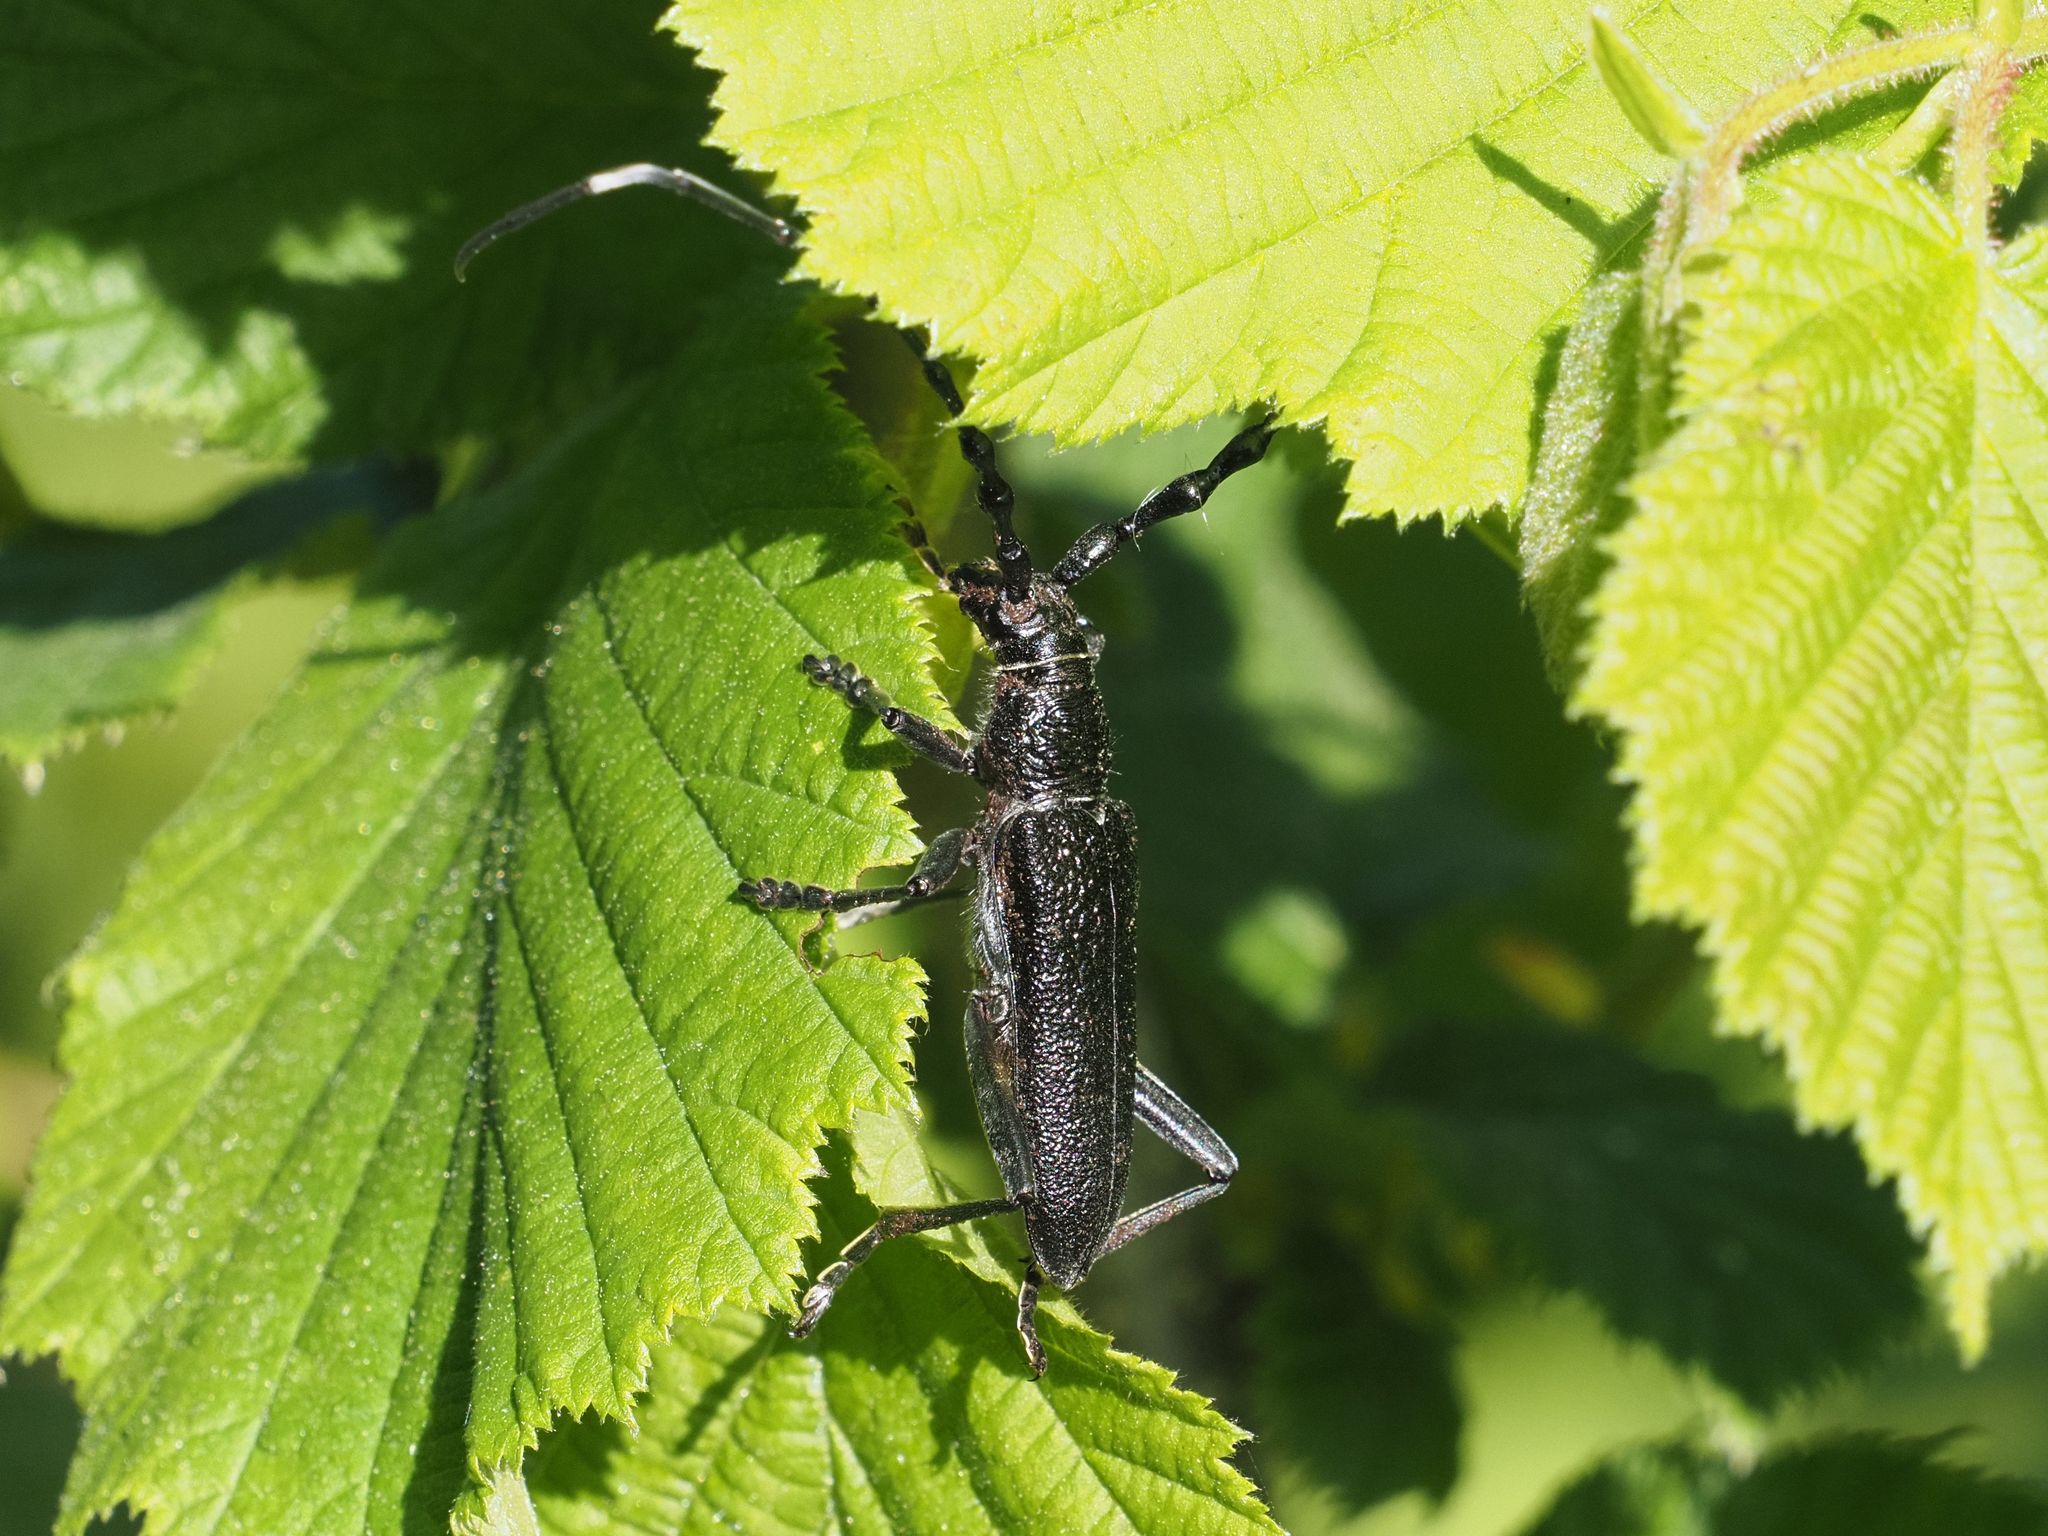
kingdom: Animalia
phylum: Arthropoda
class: Insecta
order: Coleoptera
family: Cerambycidae
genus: Cerambyx
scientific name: Cerambyx scopolii
